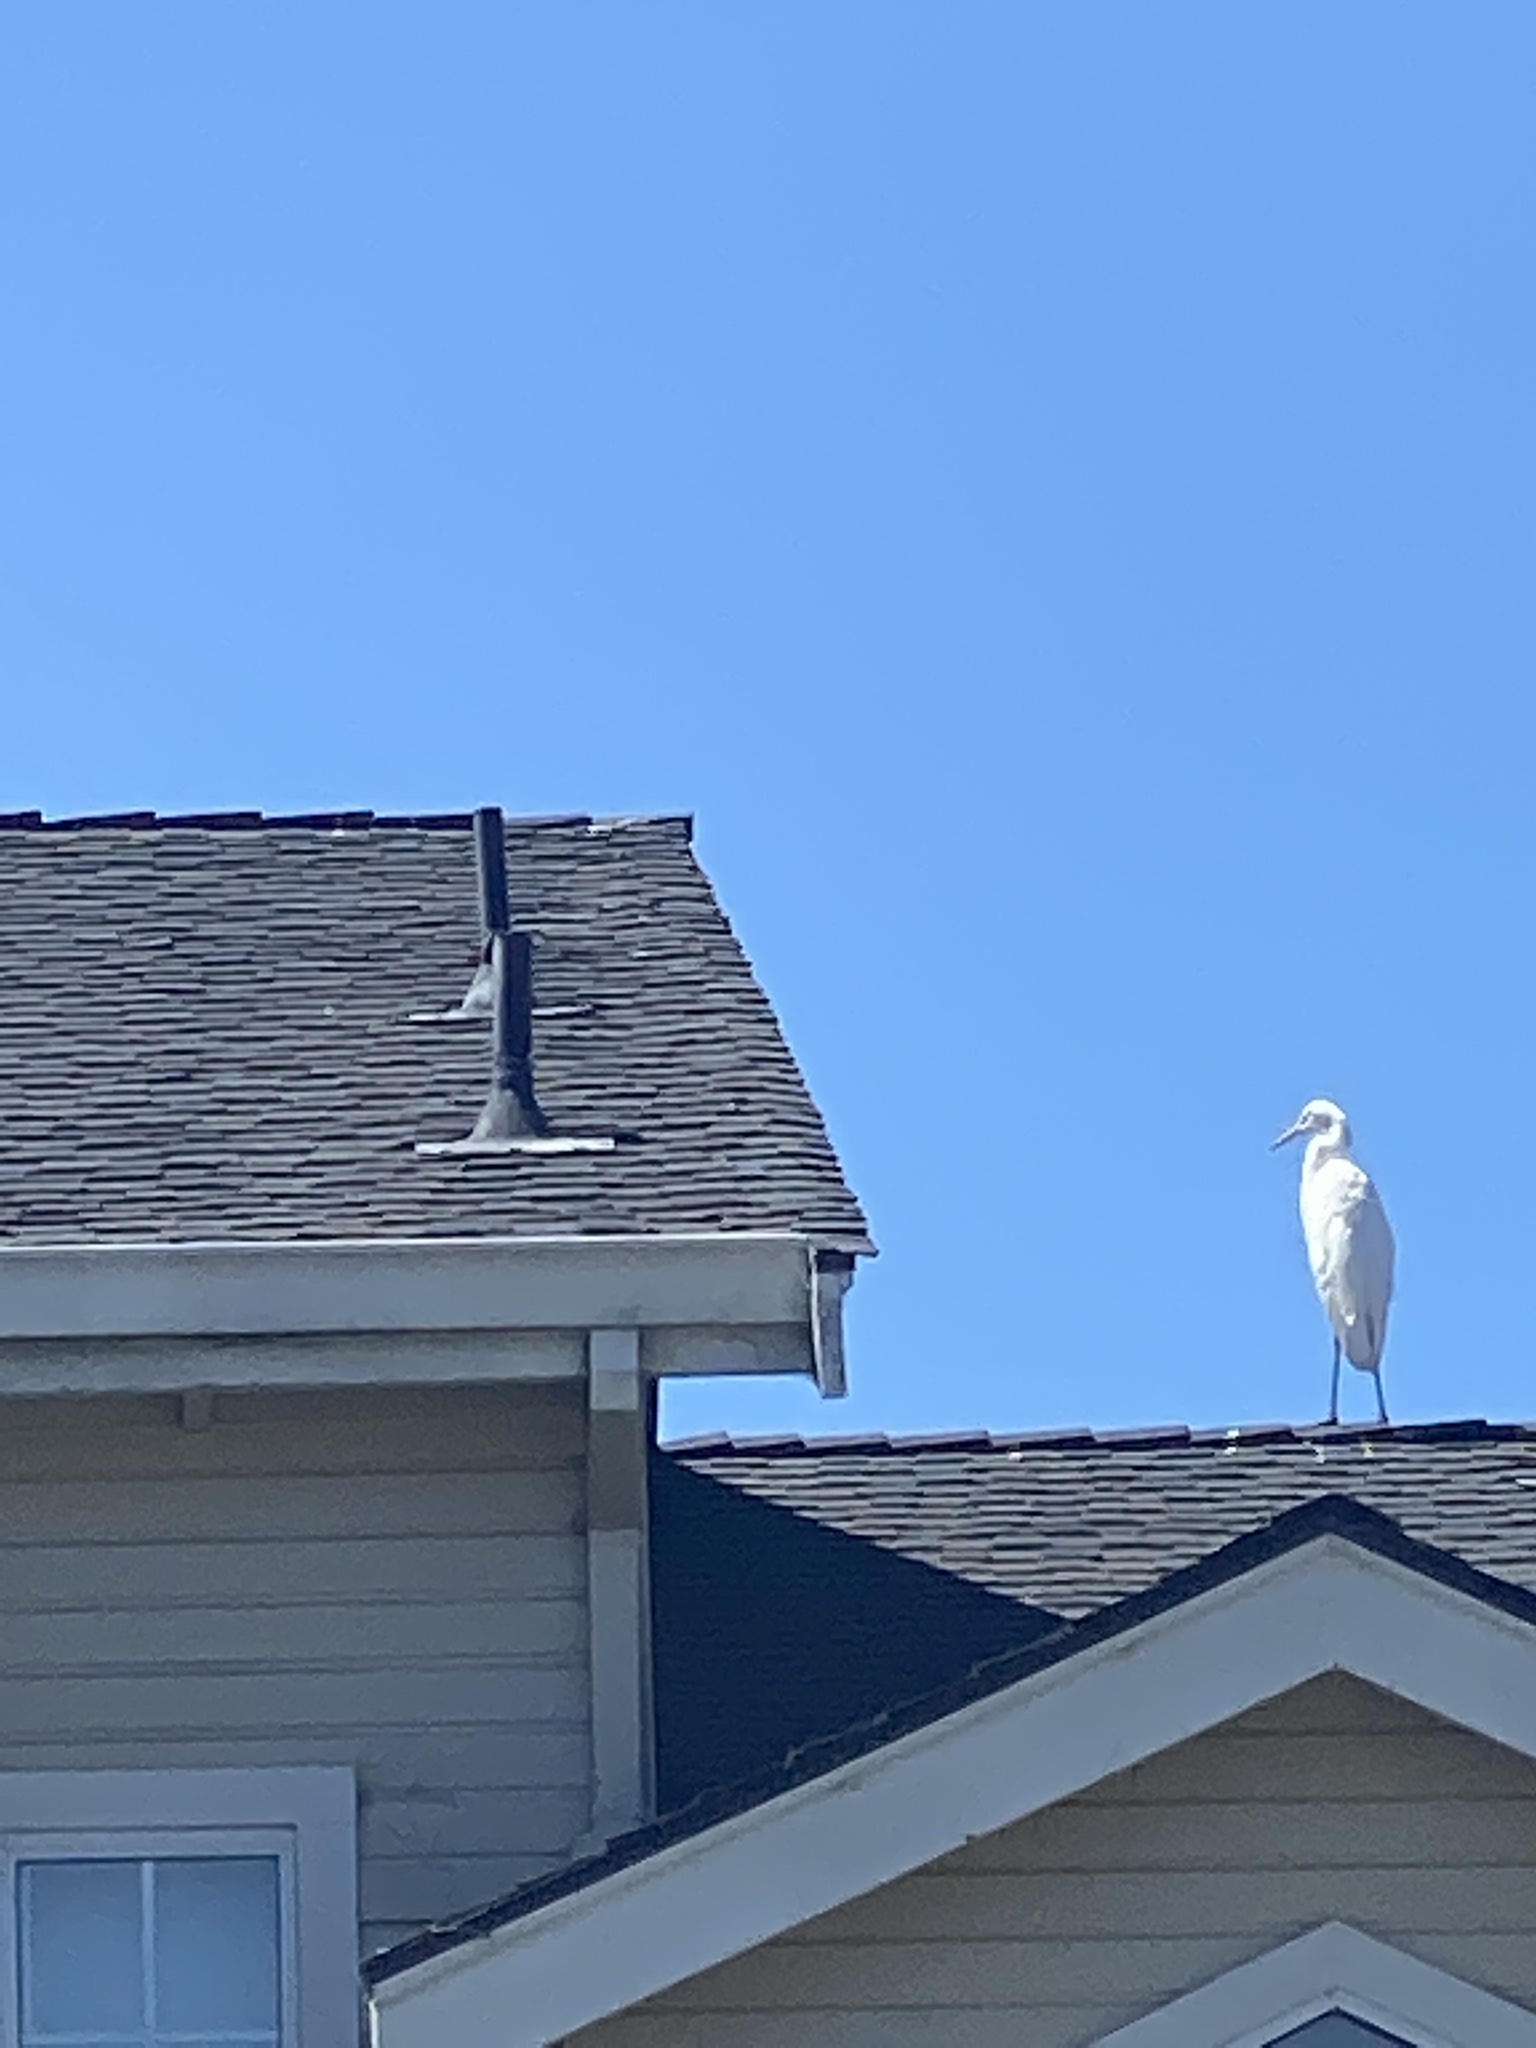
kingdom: Animalia
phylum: Chordata
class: Aves
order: Pelecaniformes
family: Ardeidae
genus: Ardea
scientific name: Ardea alba
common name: Great egret
